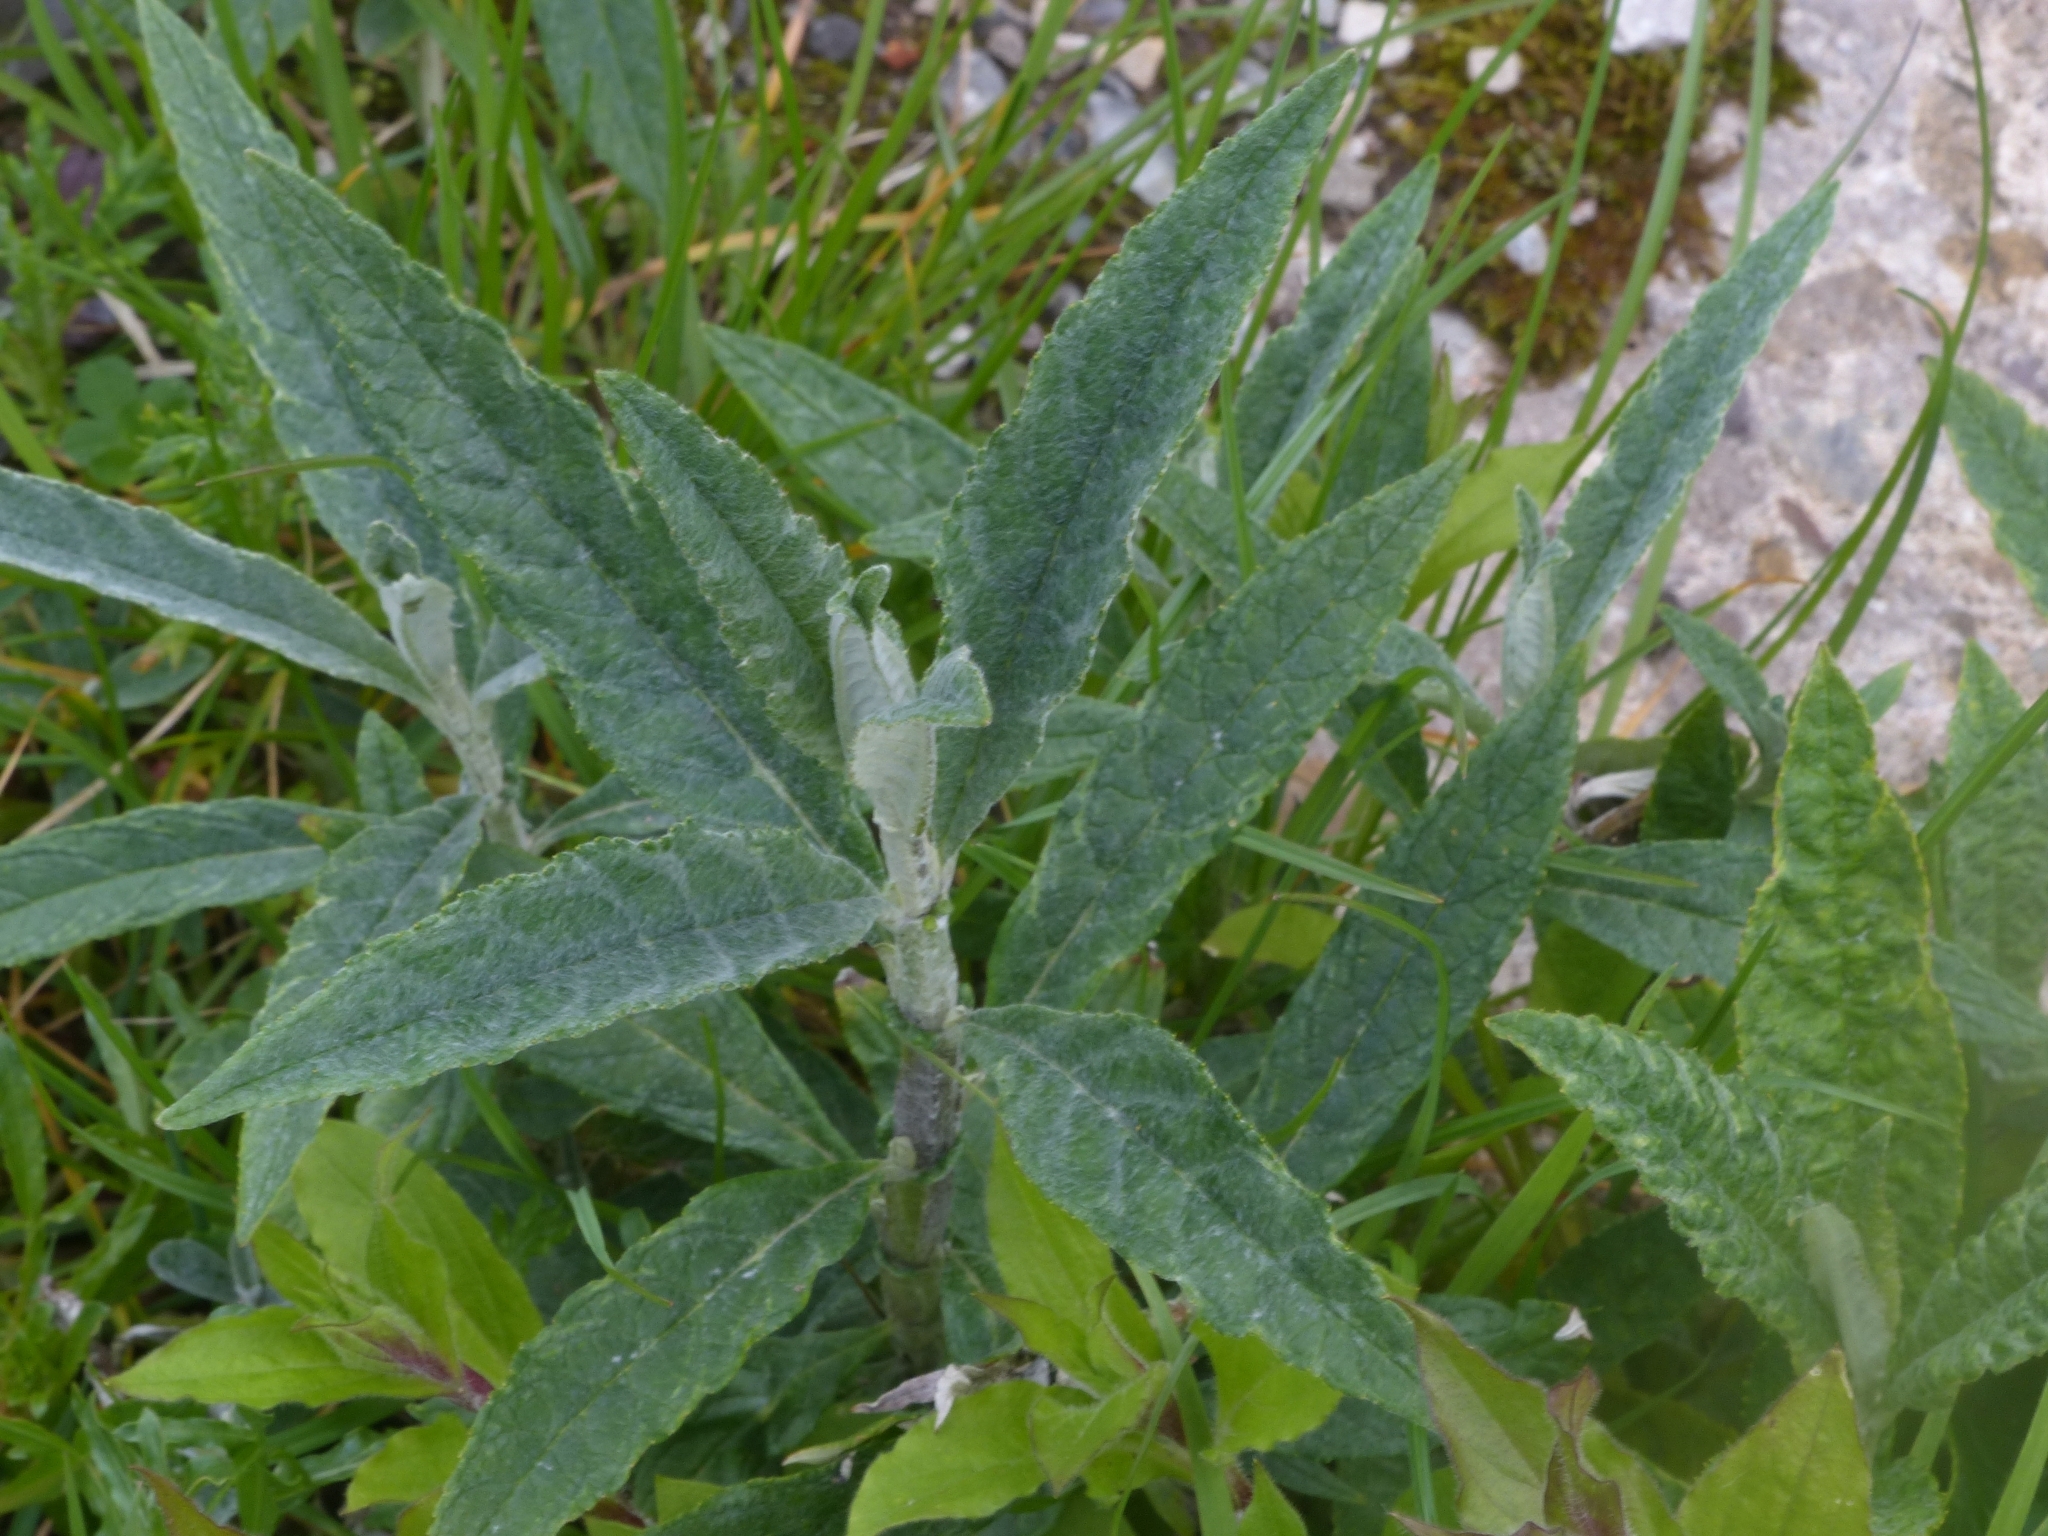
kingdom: Plantae
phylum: Tracheophyta
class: Magnoliopsida
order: Lamiales
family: Scrophulariaceae
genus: Buddleja
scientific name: Buddleja davidii
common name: Butterfly-bush
